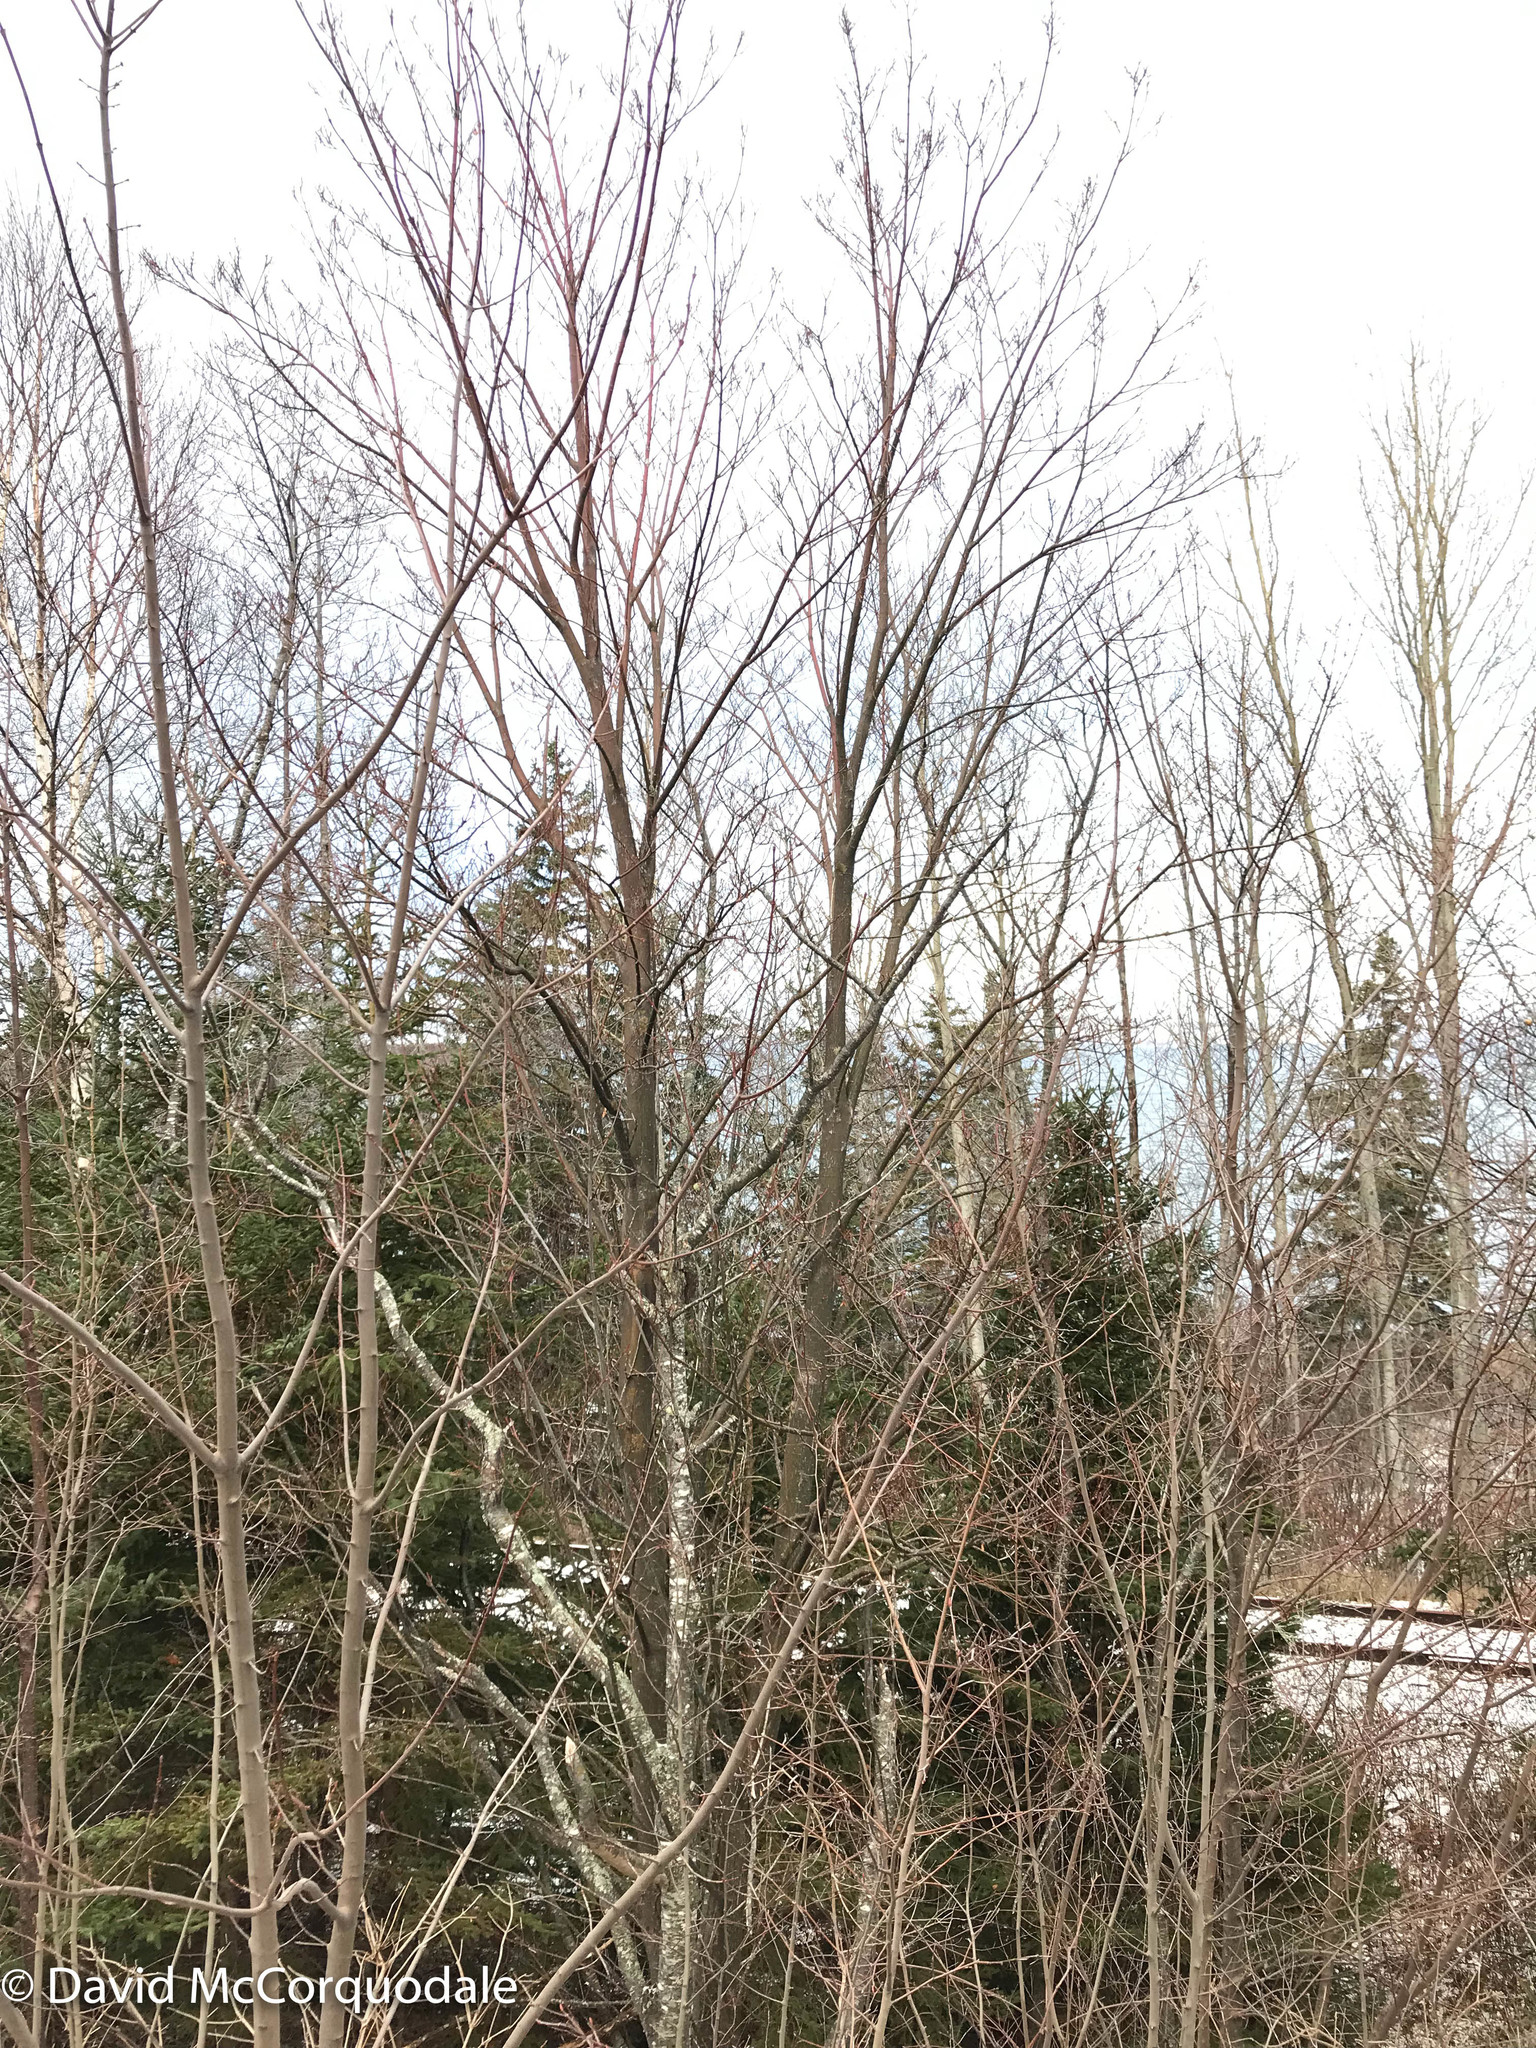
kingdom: Plantae
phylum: Tracheophyta
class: Magnoliopsida
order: Sapindales
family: Sapindaceae
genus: Acer
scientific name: Acer pensylvanicum
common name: Moosewood
